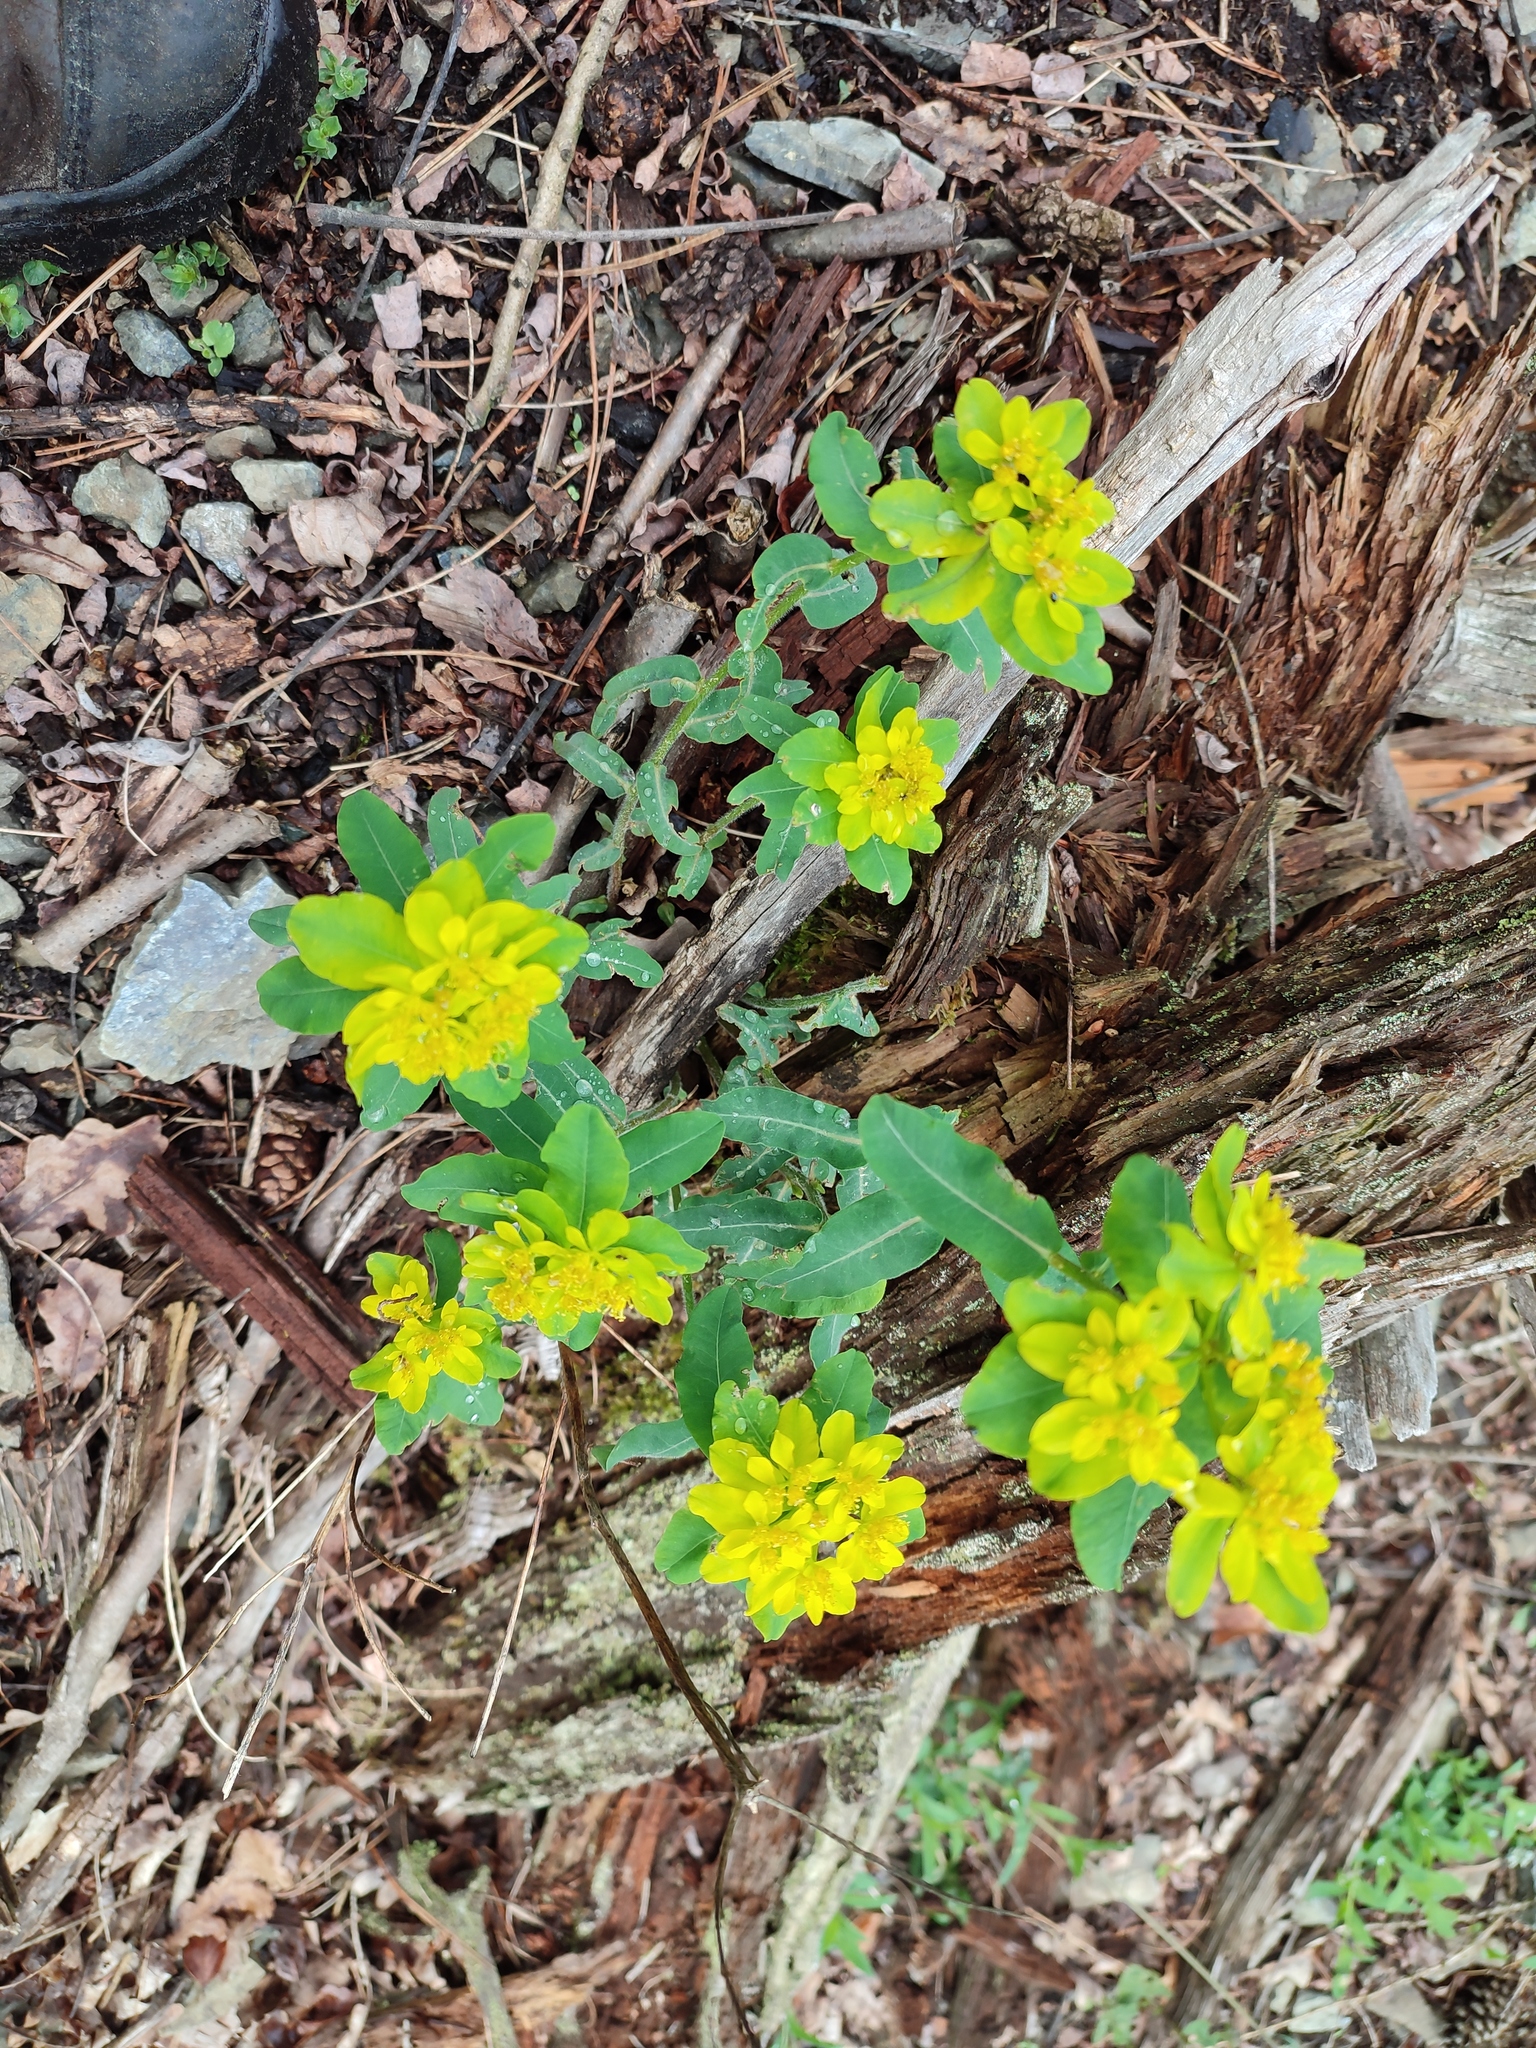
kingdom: Plantae
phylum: Tracheophyta
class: Magnoliopsida
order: Malpighiales
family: Euphorbiaceae
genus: Euphorbia
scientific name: Euphorbia epithymoides
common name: Cushion spurge
